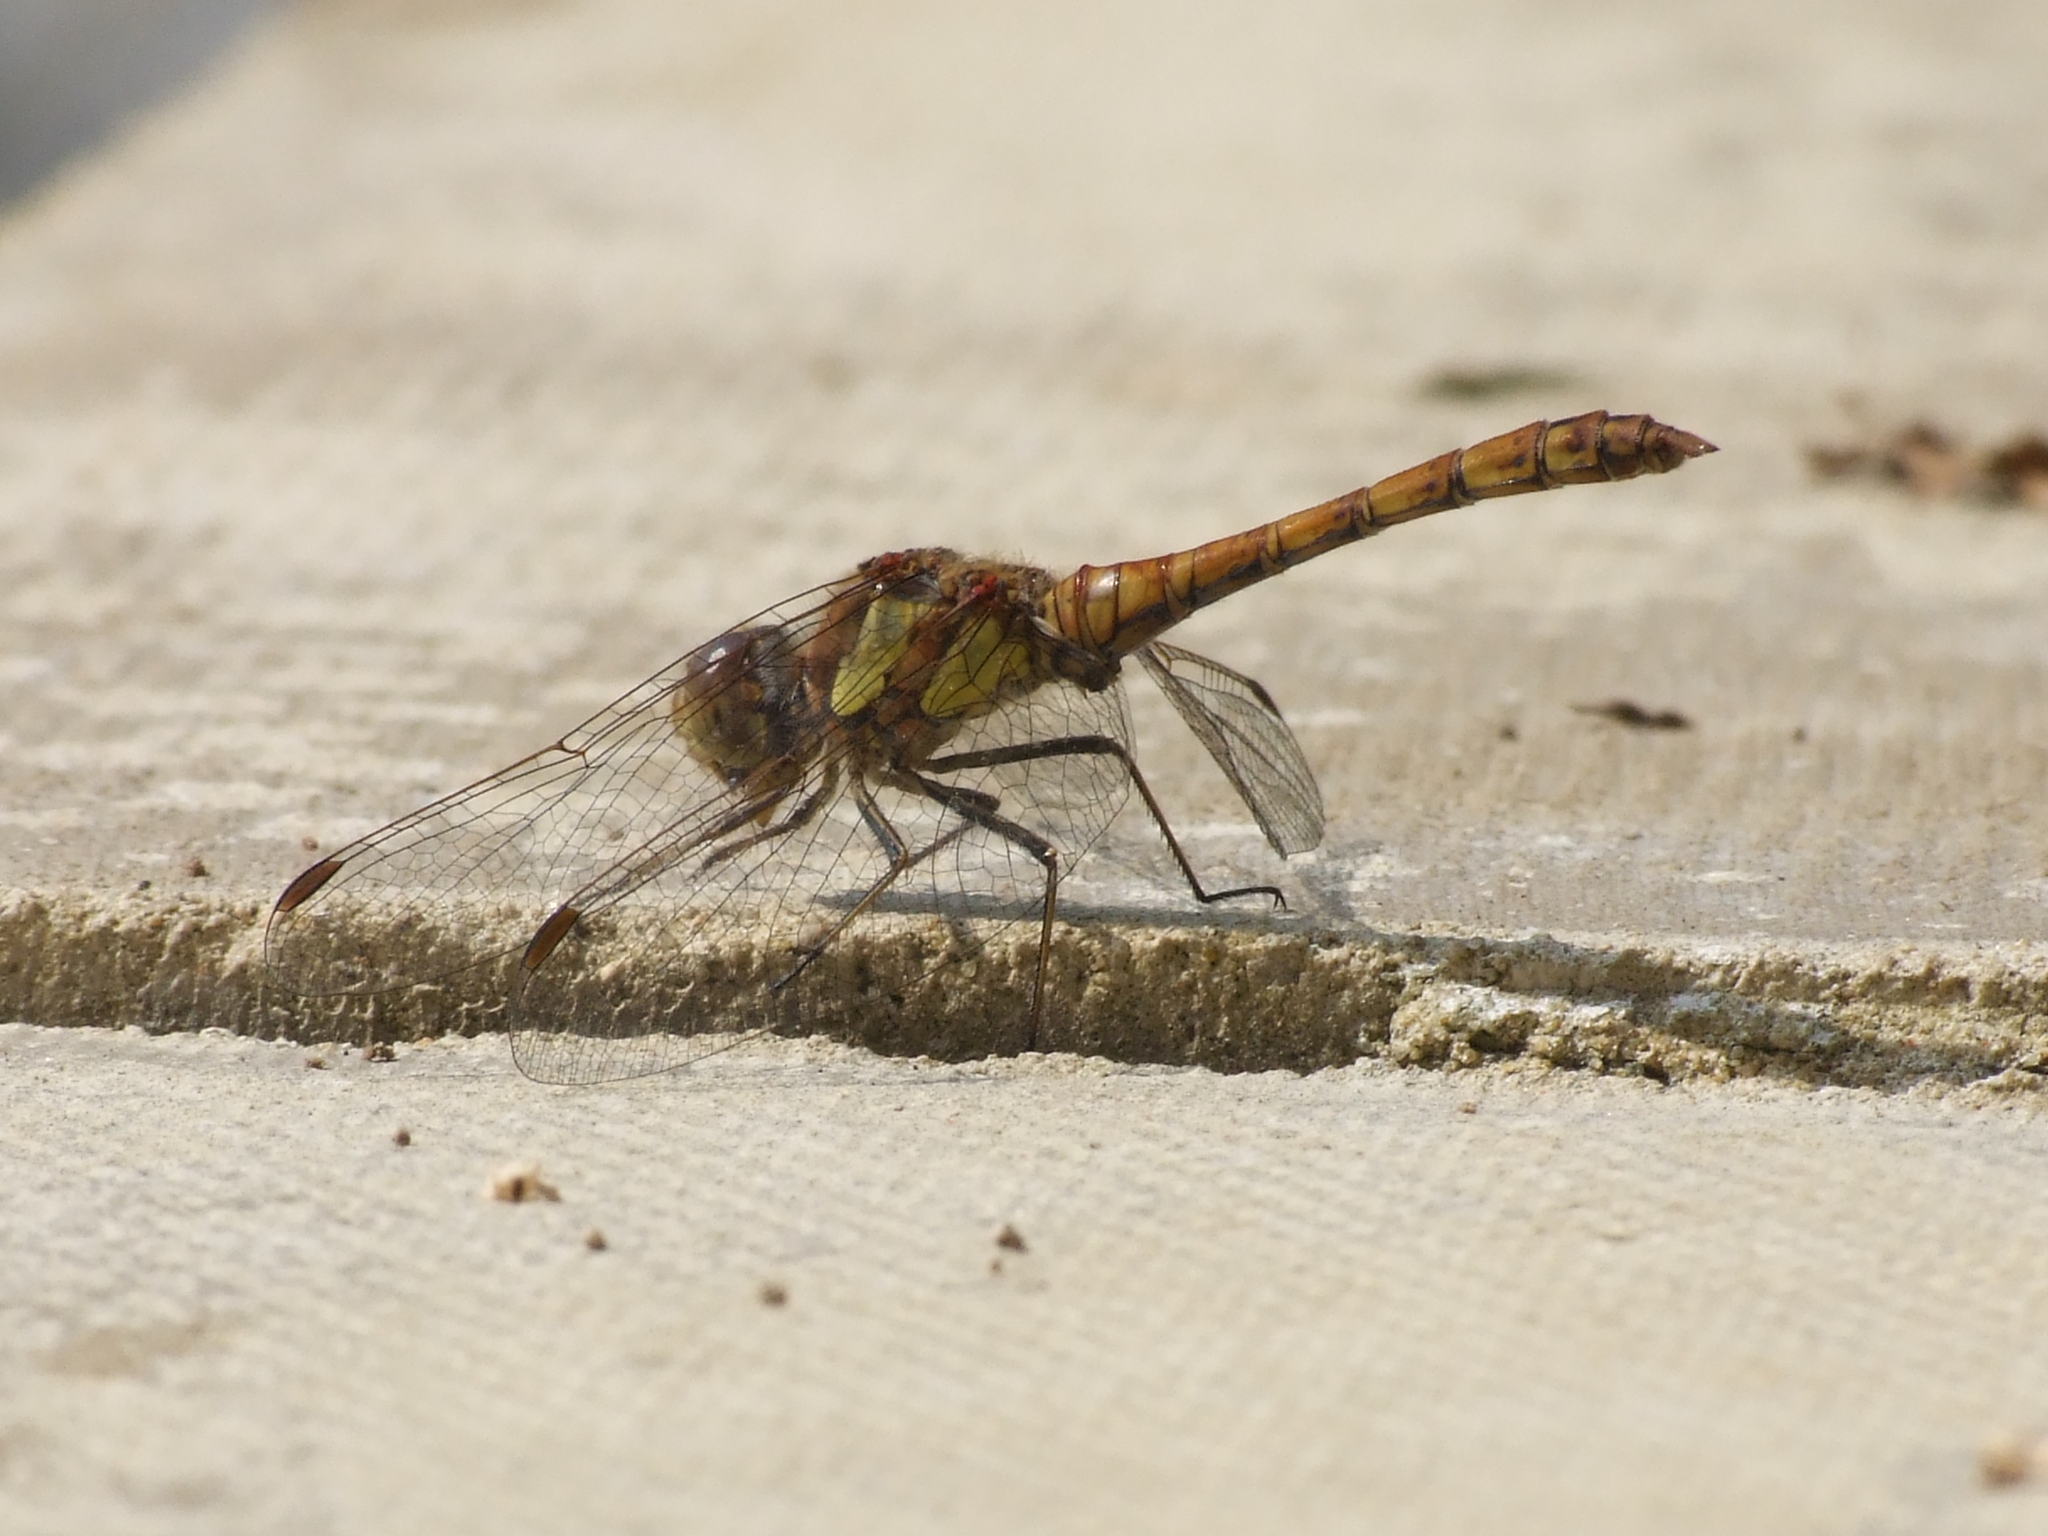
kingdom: Animalia
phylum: Arthropoda
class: Insecta
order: Odonata
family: Libellulidae
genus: Sympetrum
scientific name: Sympetrum striolatum
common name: Common darter
